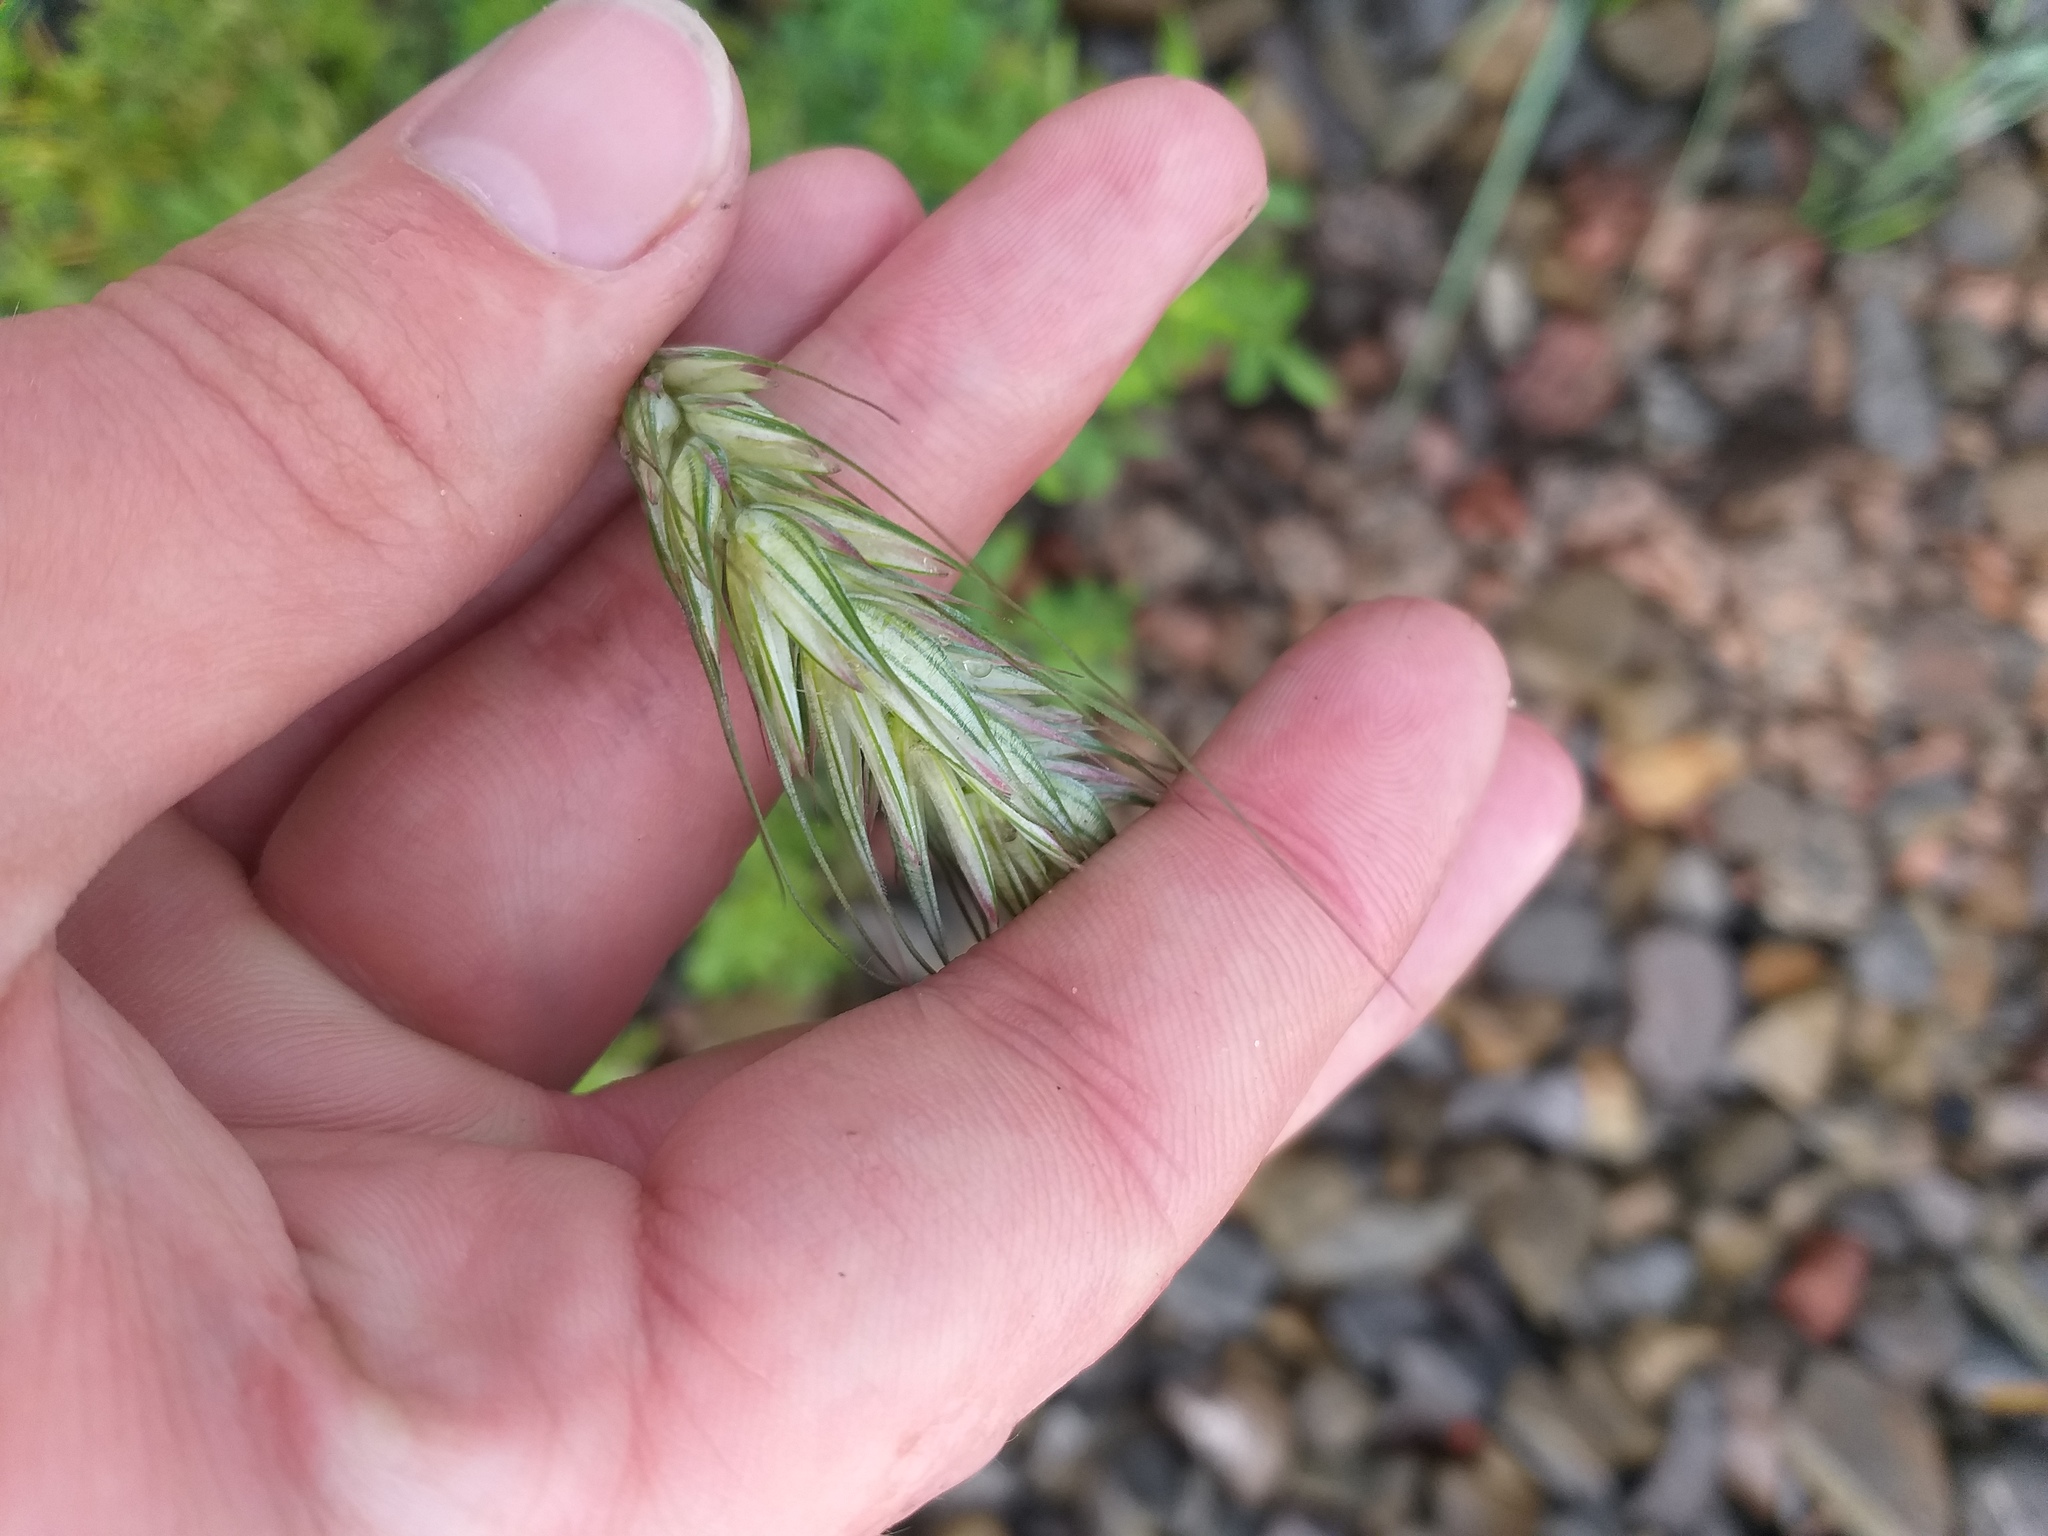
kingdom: Plantae
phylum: Tracheophyta
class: Liliopsida
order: Poales
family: Poaceae
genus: Secale
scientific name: Secale cereale
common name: Rye
